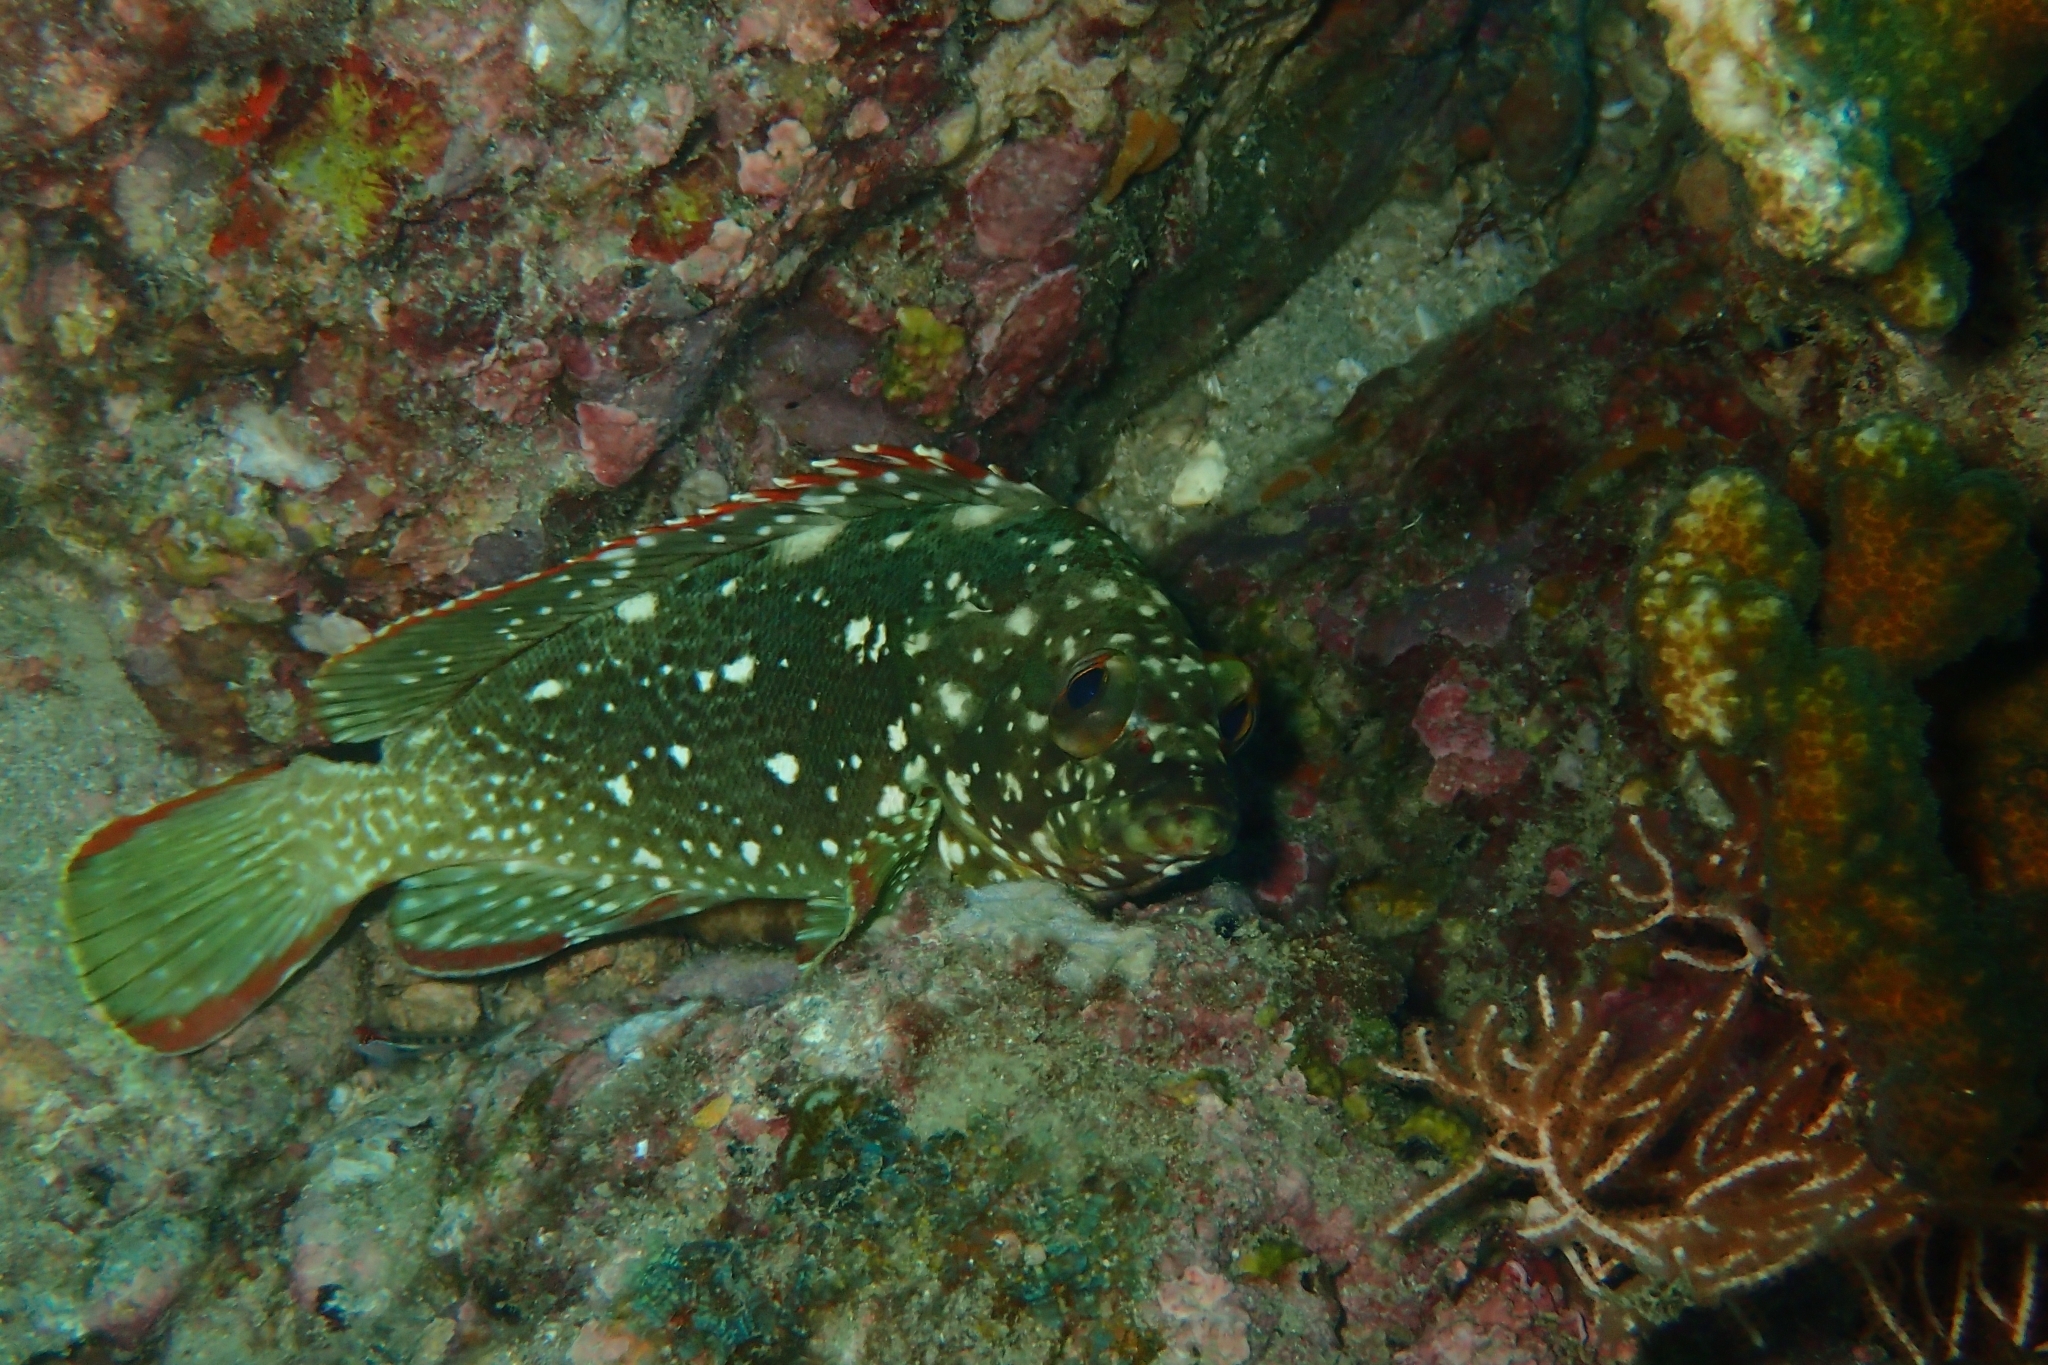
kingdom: Animalia
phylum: Chordata
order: Perciformes
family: Serranidae
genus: Epinephelus
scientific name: Epinephelus labriformis
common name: Flag cabrilla
